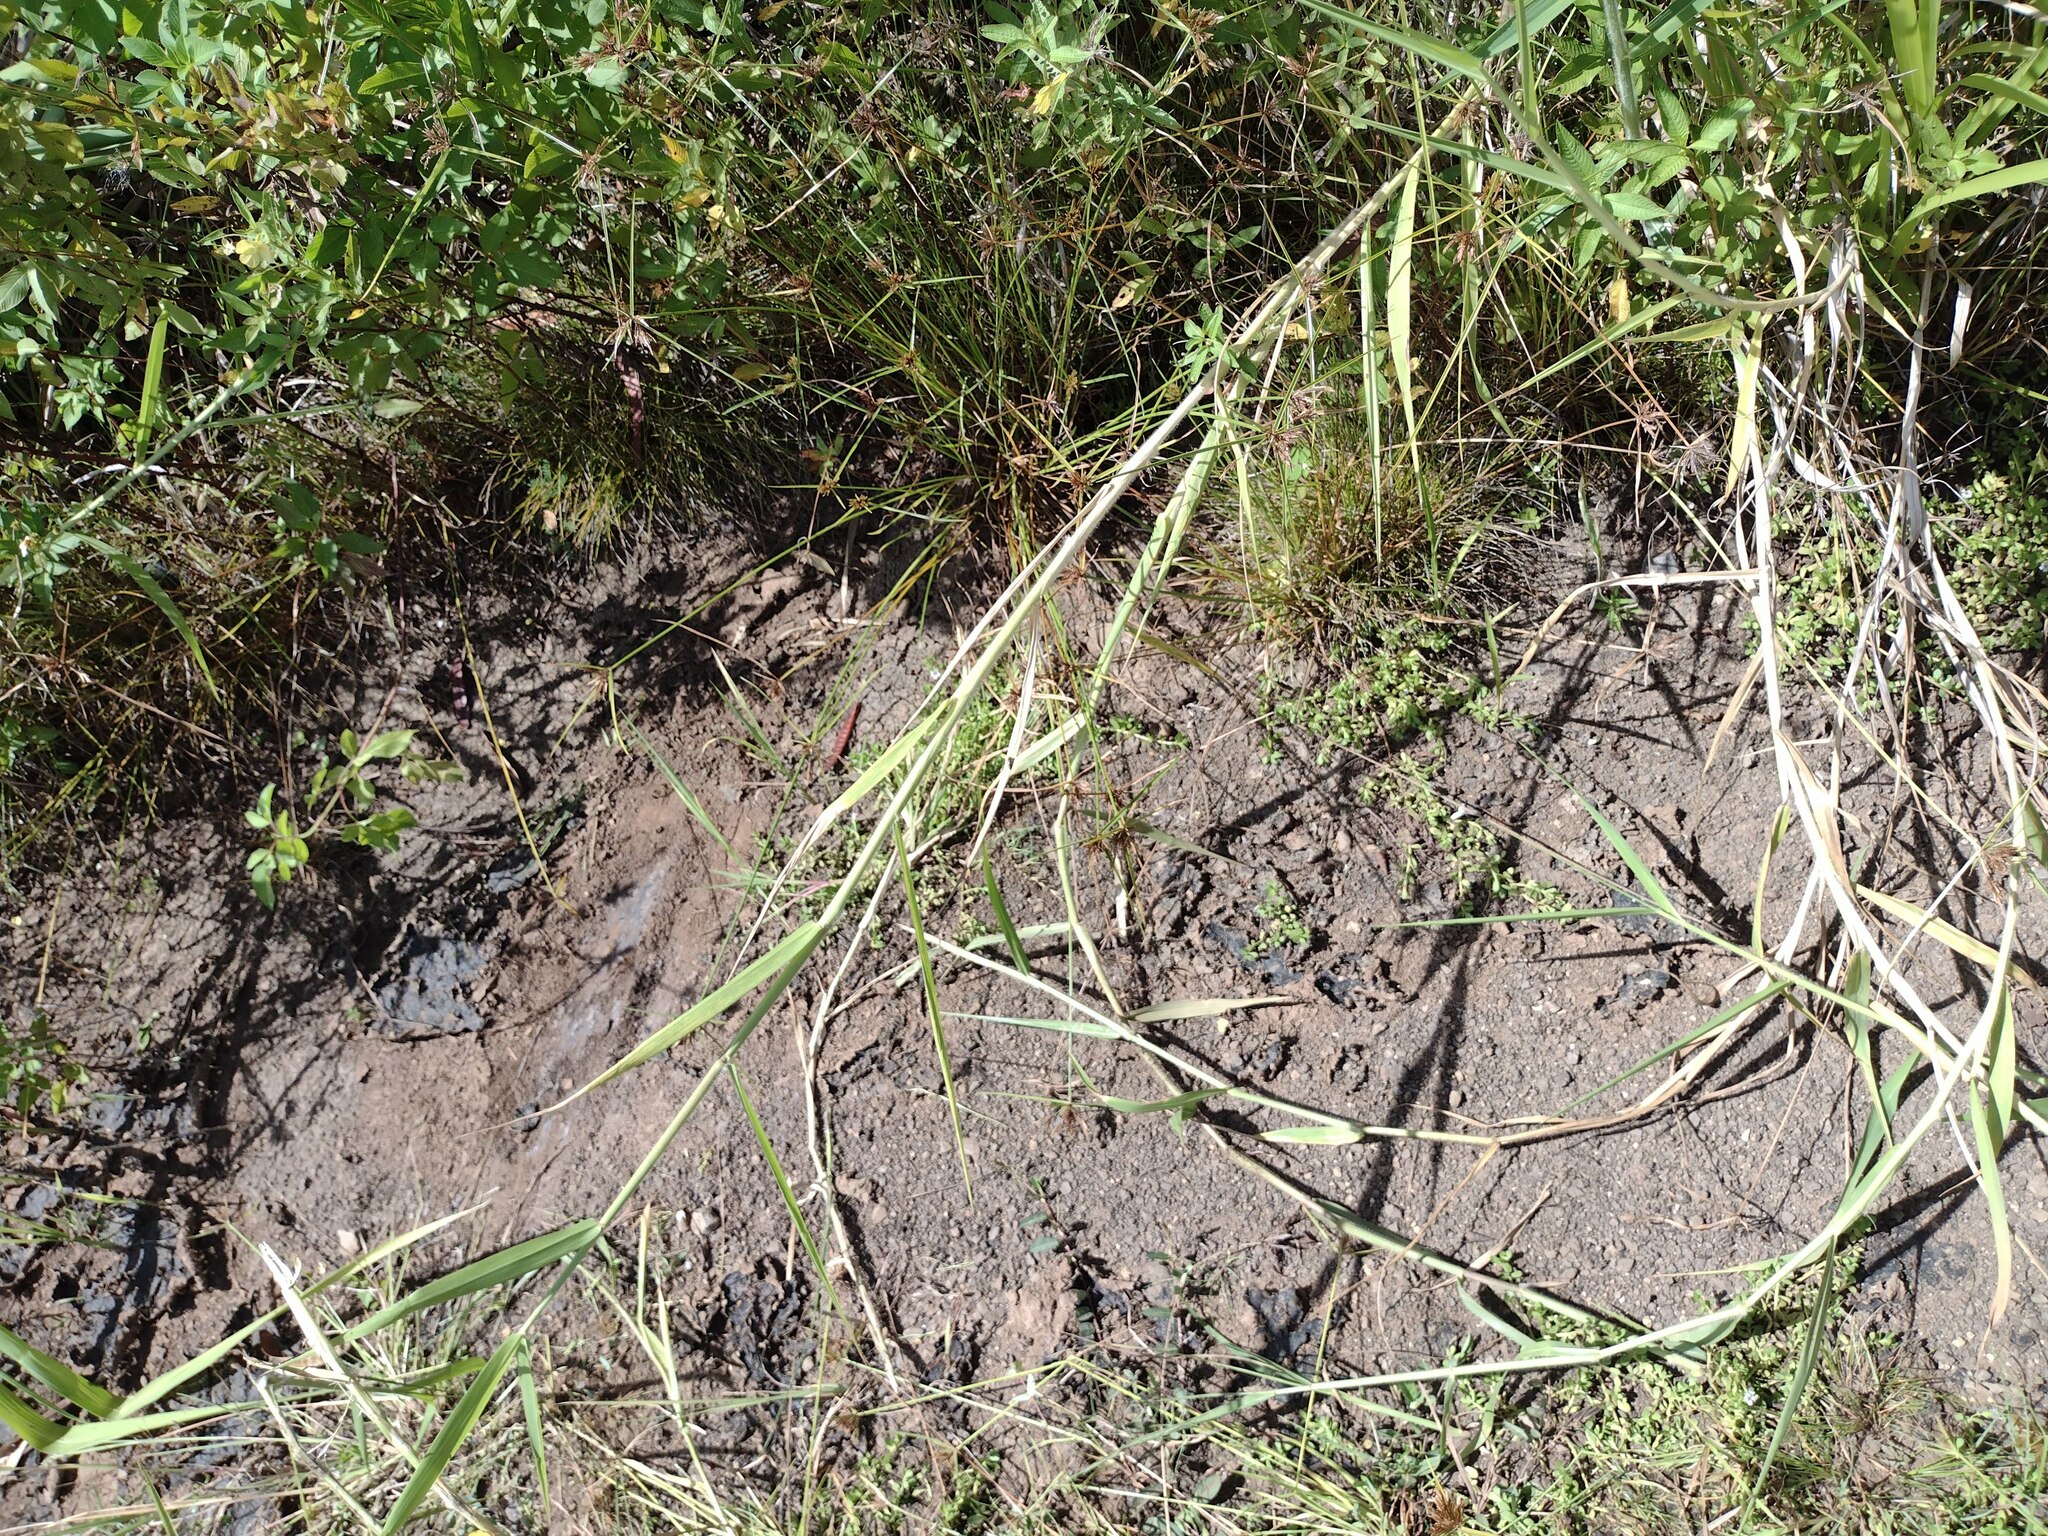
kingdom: Plantae
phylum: Tracheophyta
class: Liliopsida
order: Poales
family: Poaceae
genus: Urochloa
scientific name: Urochloa mutica
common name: Para grass
